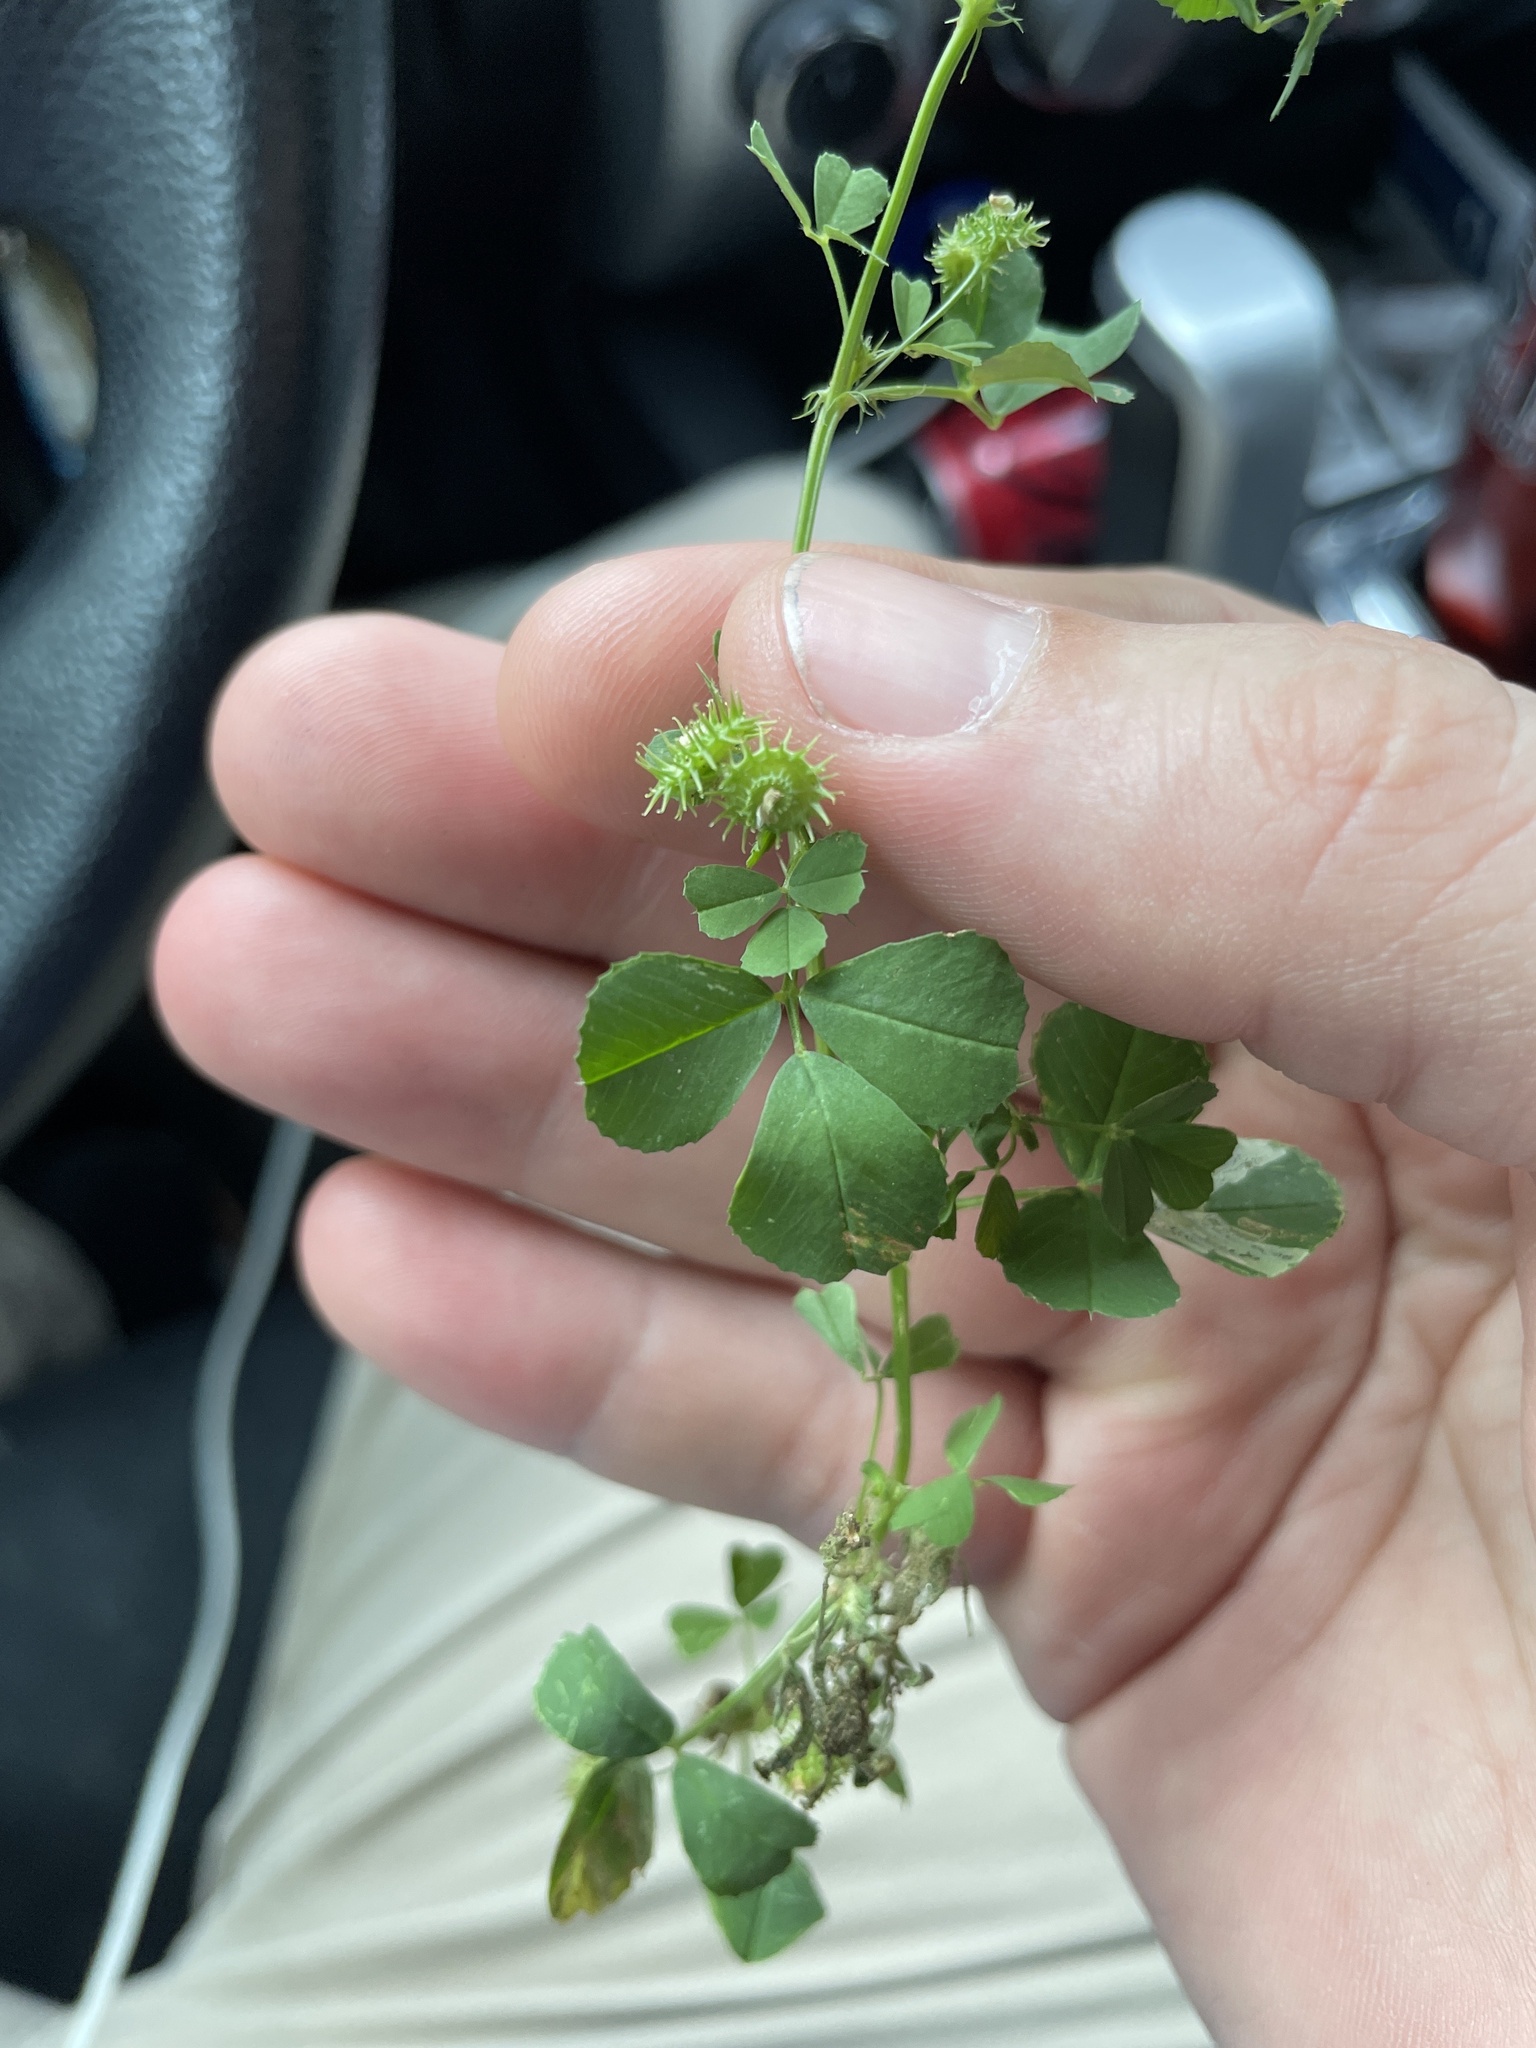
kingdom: Plantae
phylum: Tracheophyta
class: Magnoliopsida
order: Fabales
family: Fabaceae
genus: Medicago
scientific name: Medicago polymorpha
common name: Burclover
